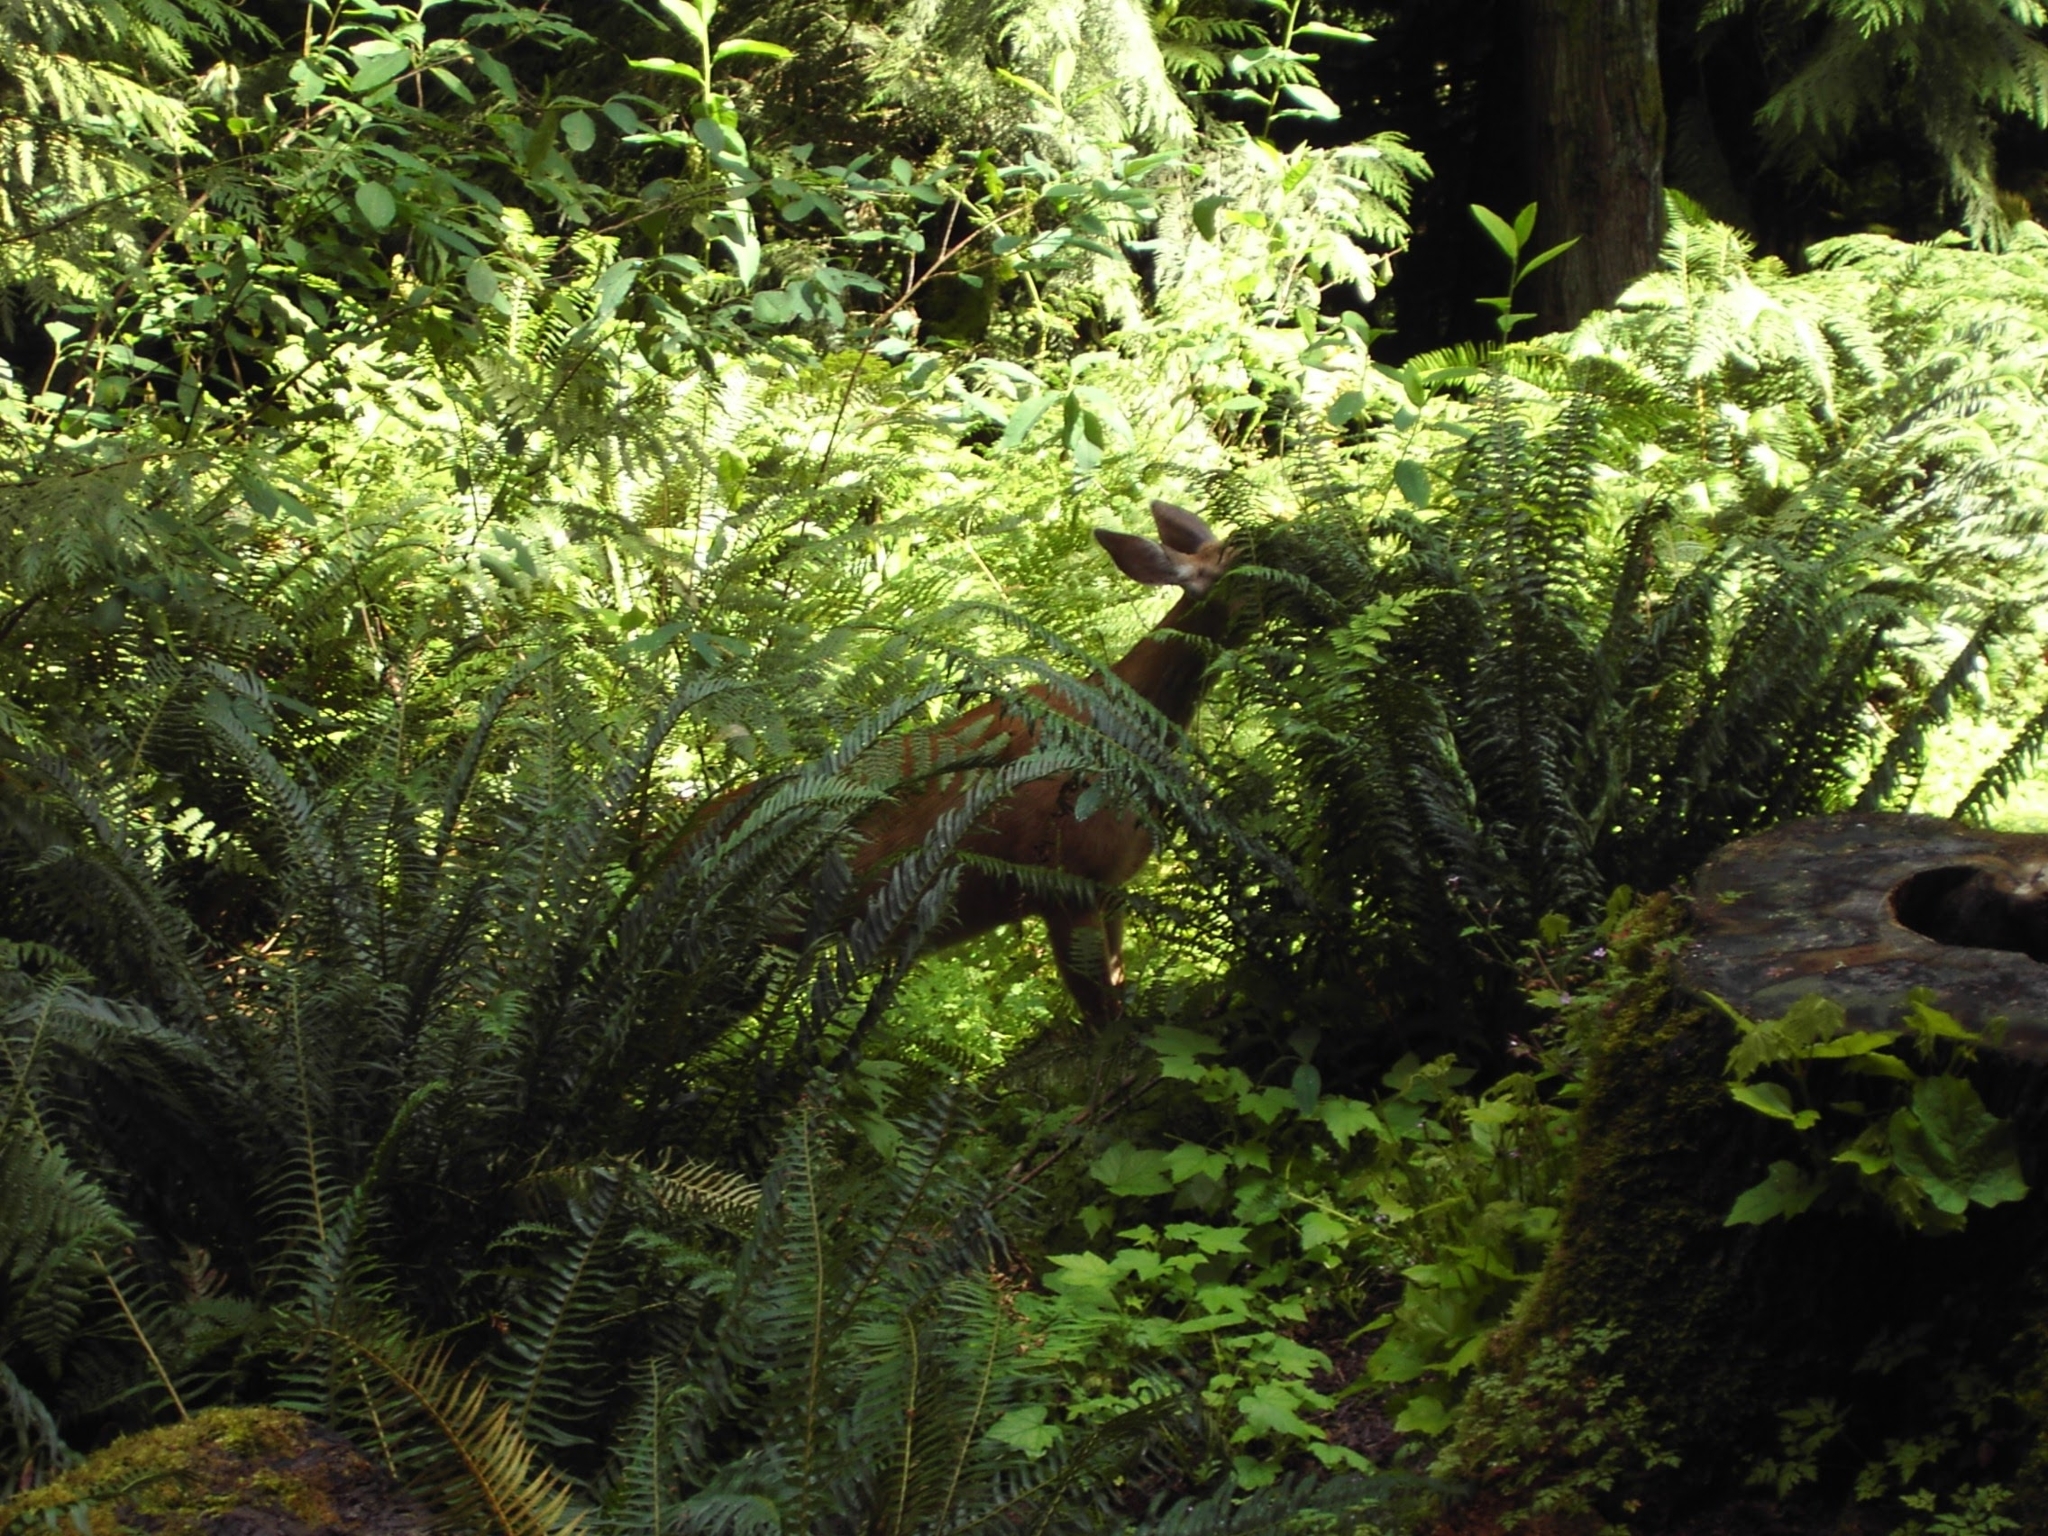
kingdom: Animalia
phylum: Chordata
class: Mammalia
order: Artiodactyla
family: Cervidae
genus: Odocoileus
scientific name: Odocoileus hemionus
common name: Mule deer
